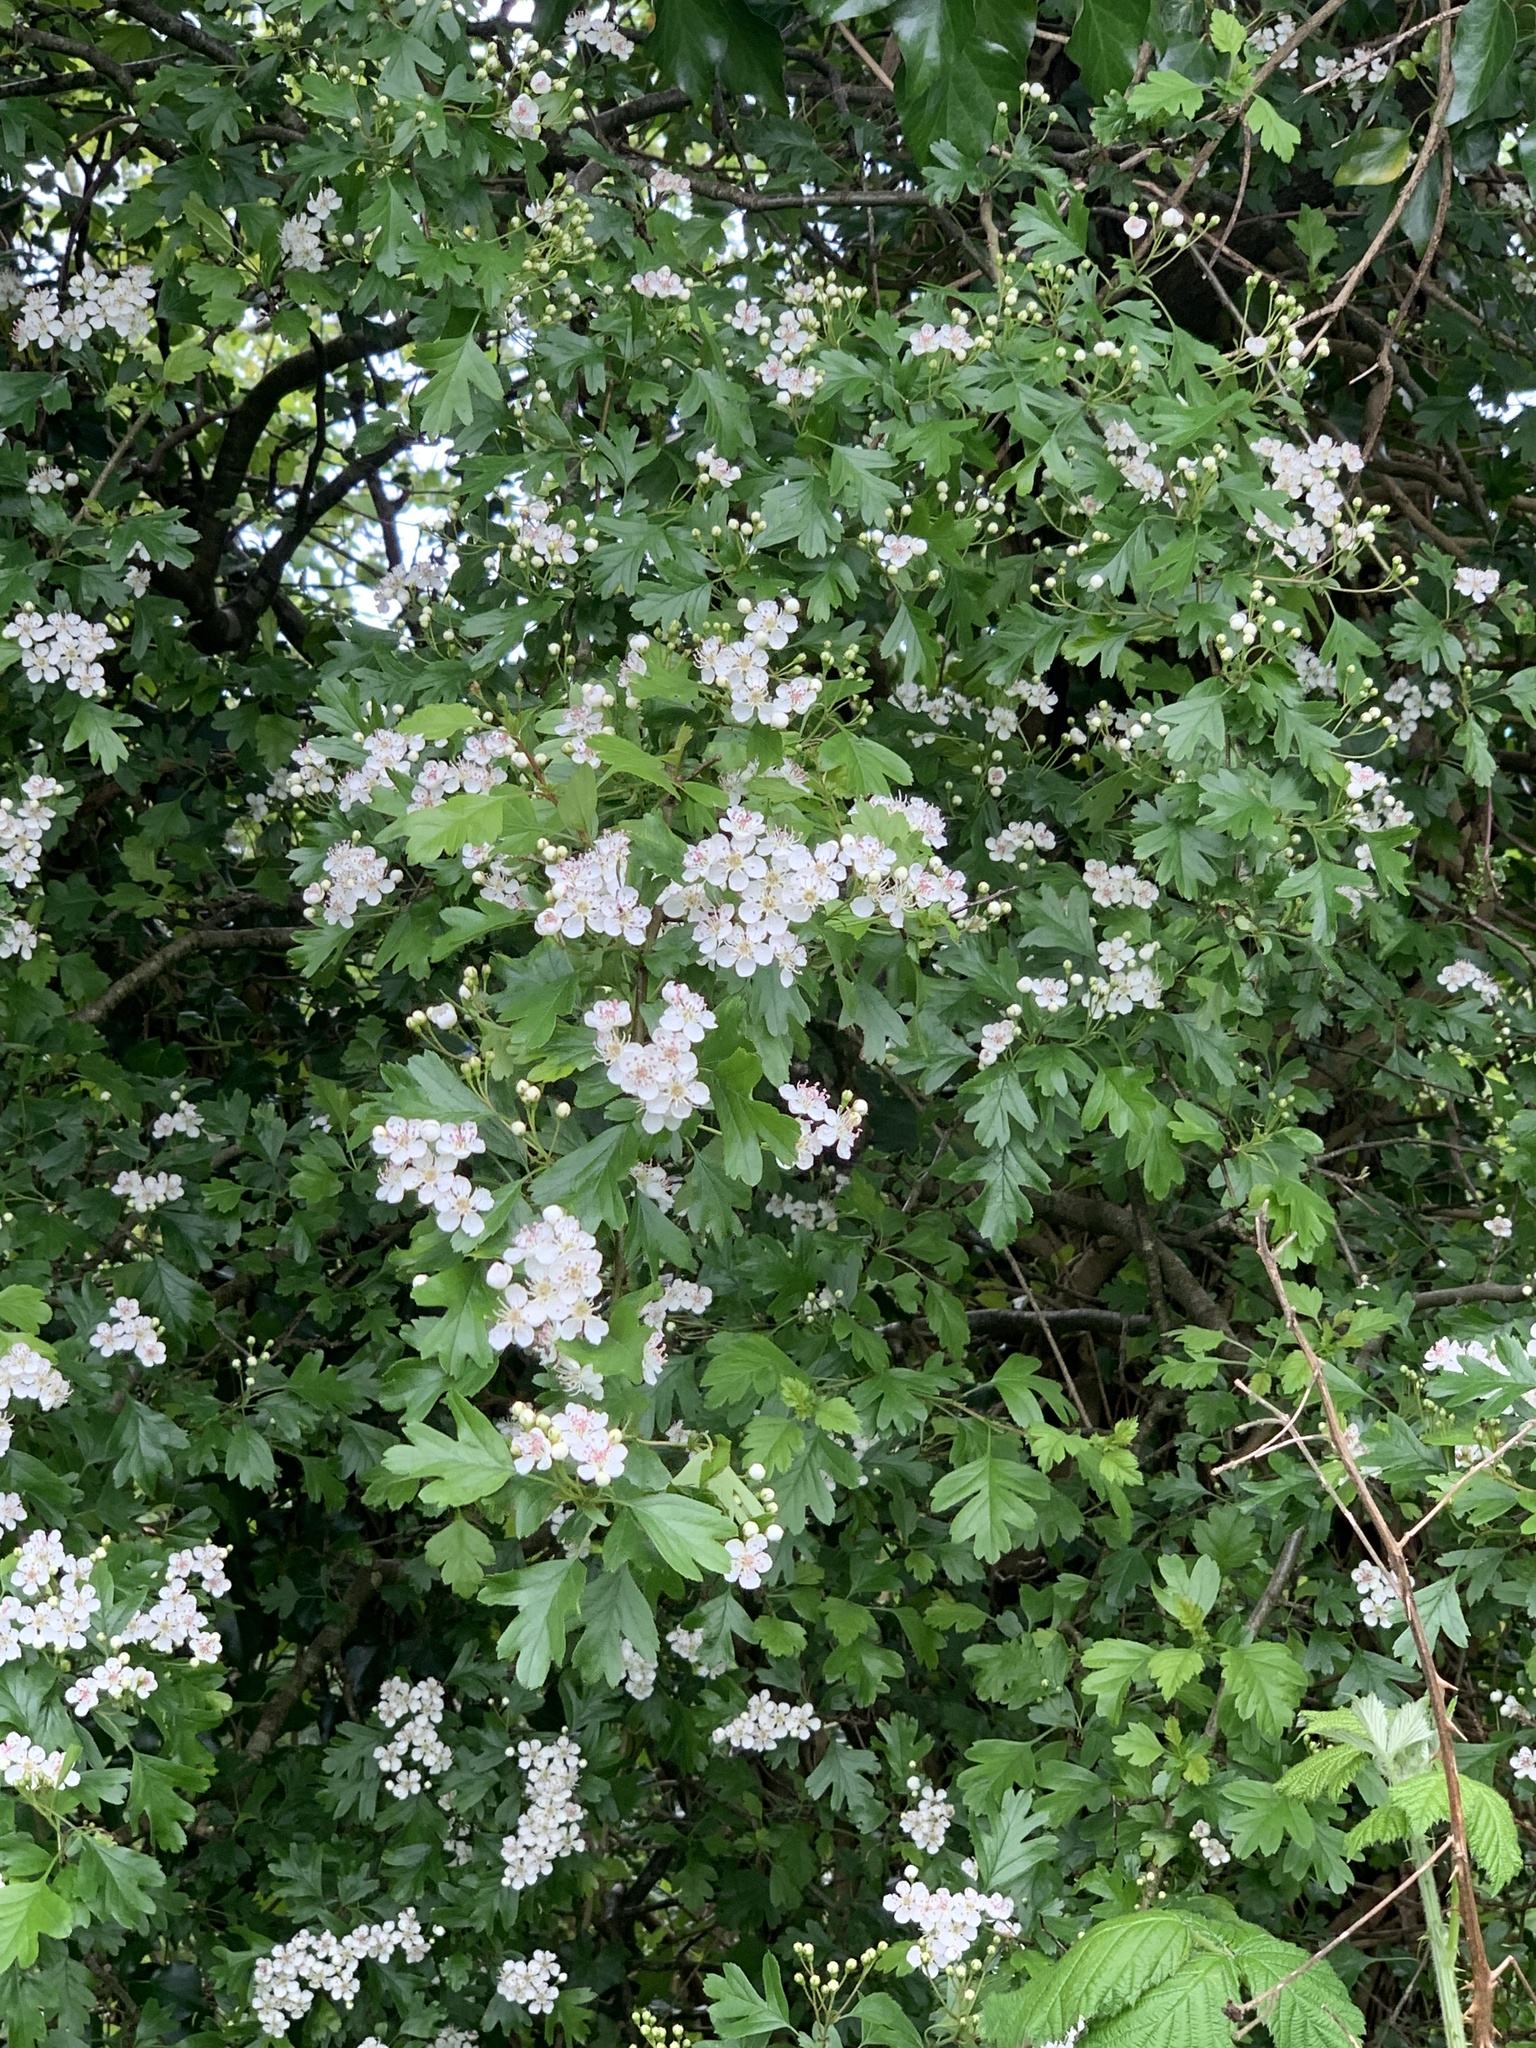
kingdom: Plantae
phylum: Tracheophyta
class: Magnoliopsida
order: Rosales
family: Rosaceae
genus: Crataegus
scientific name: Crataegus monogyna
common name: Hawthorn
